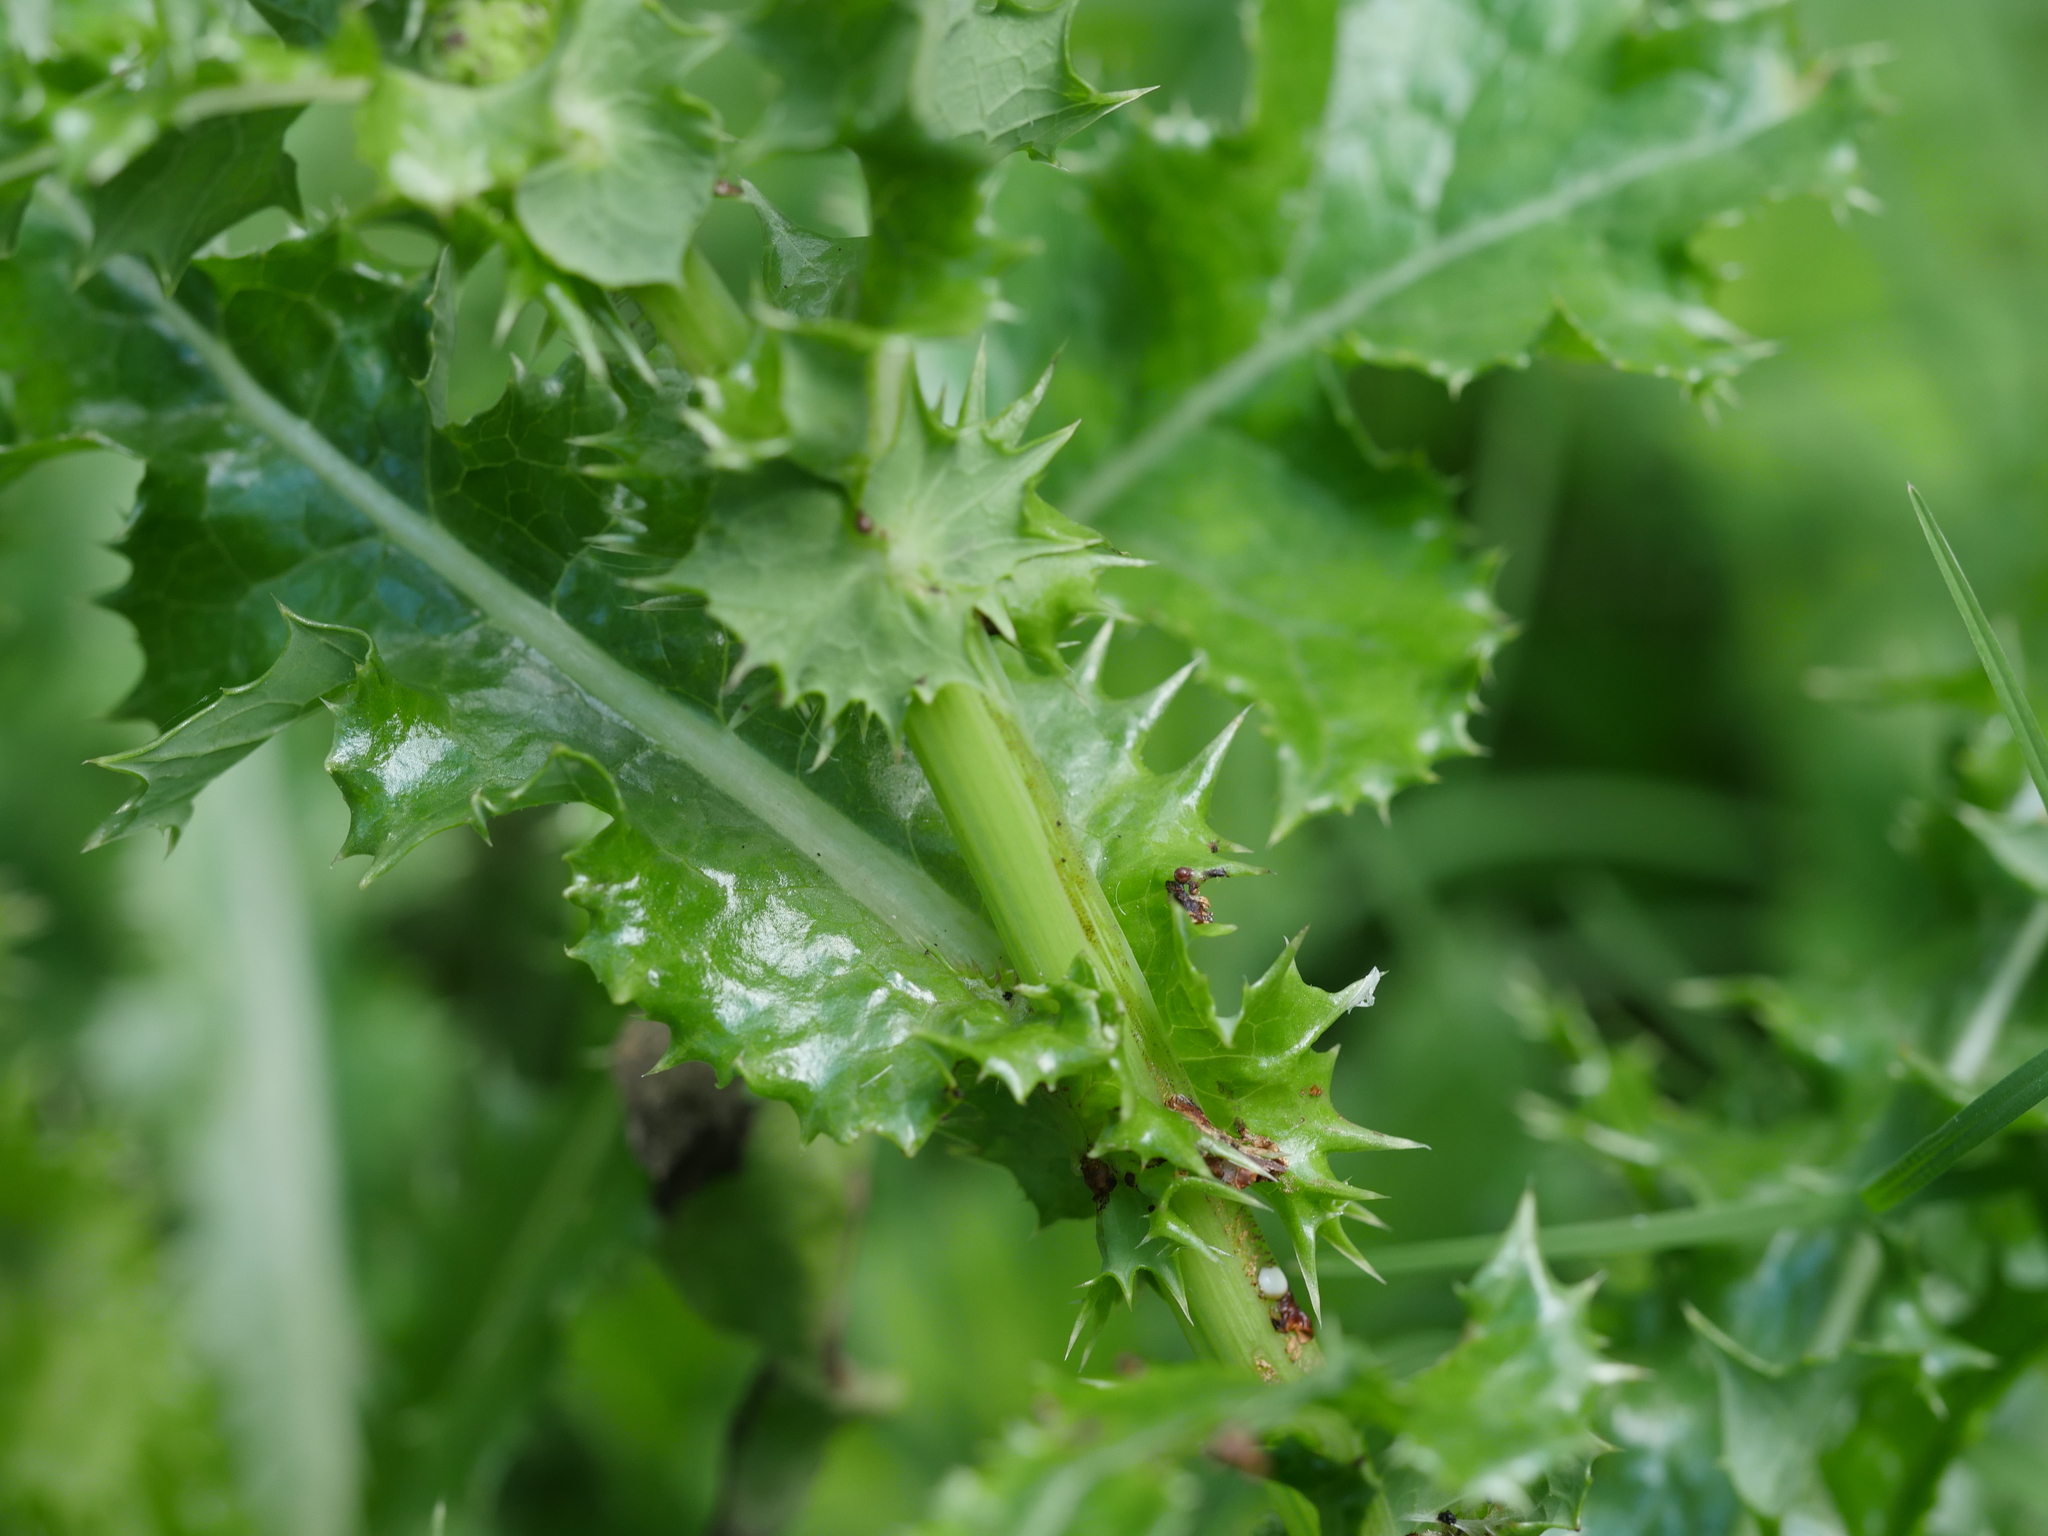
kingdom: Plantae
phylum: Tracheophyta
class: Magnoliopsida
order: Asterales
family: Asteraceae
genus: Sonchus
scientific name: Sonchus asper
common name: Prickly sow-thistle
